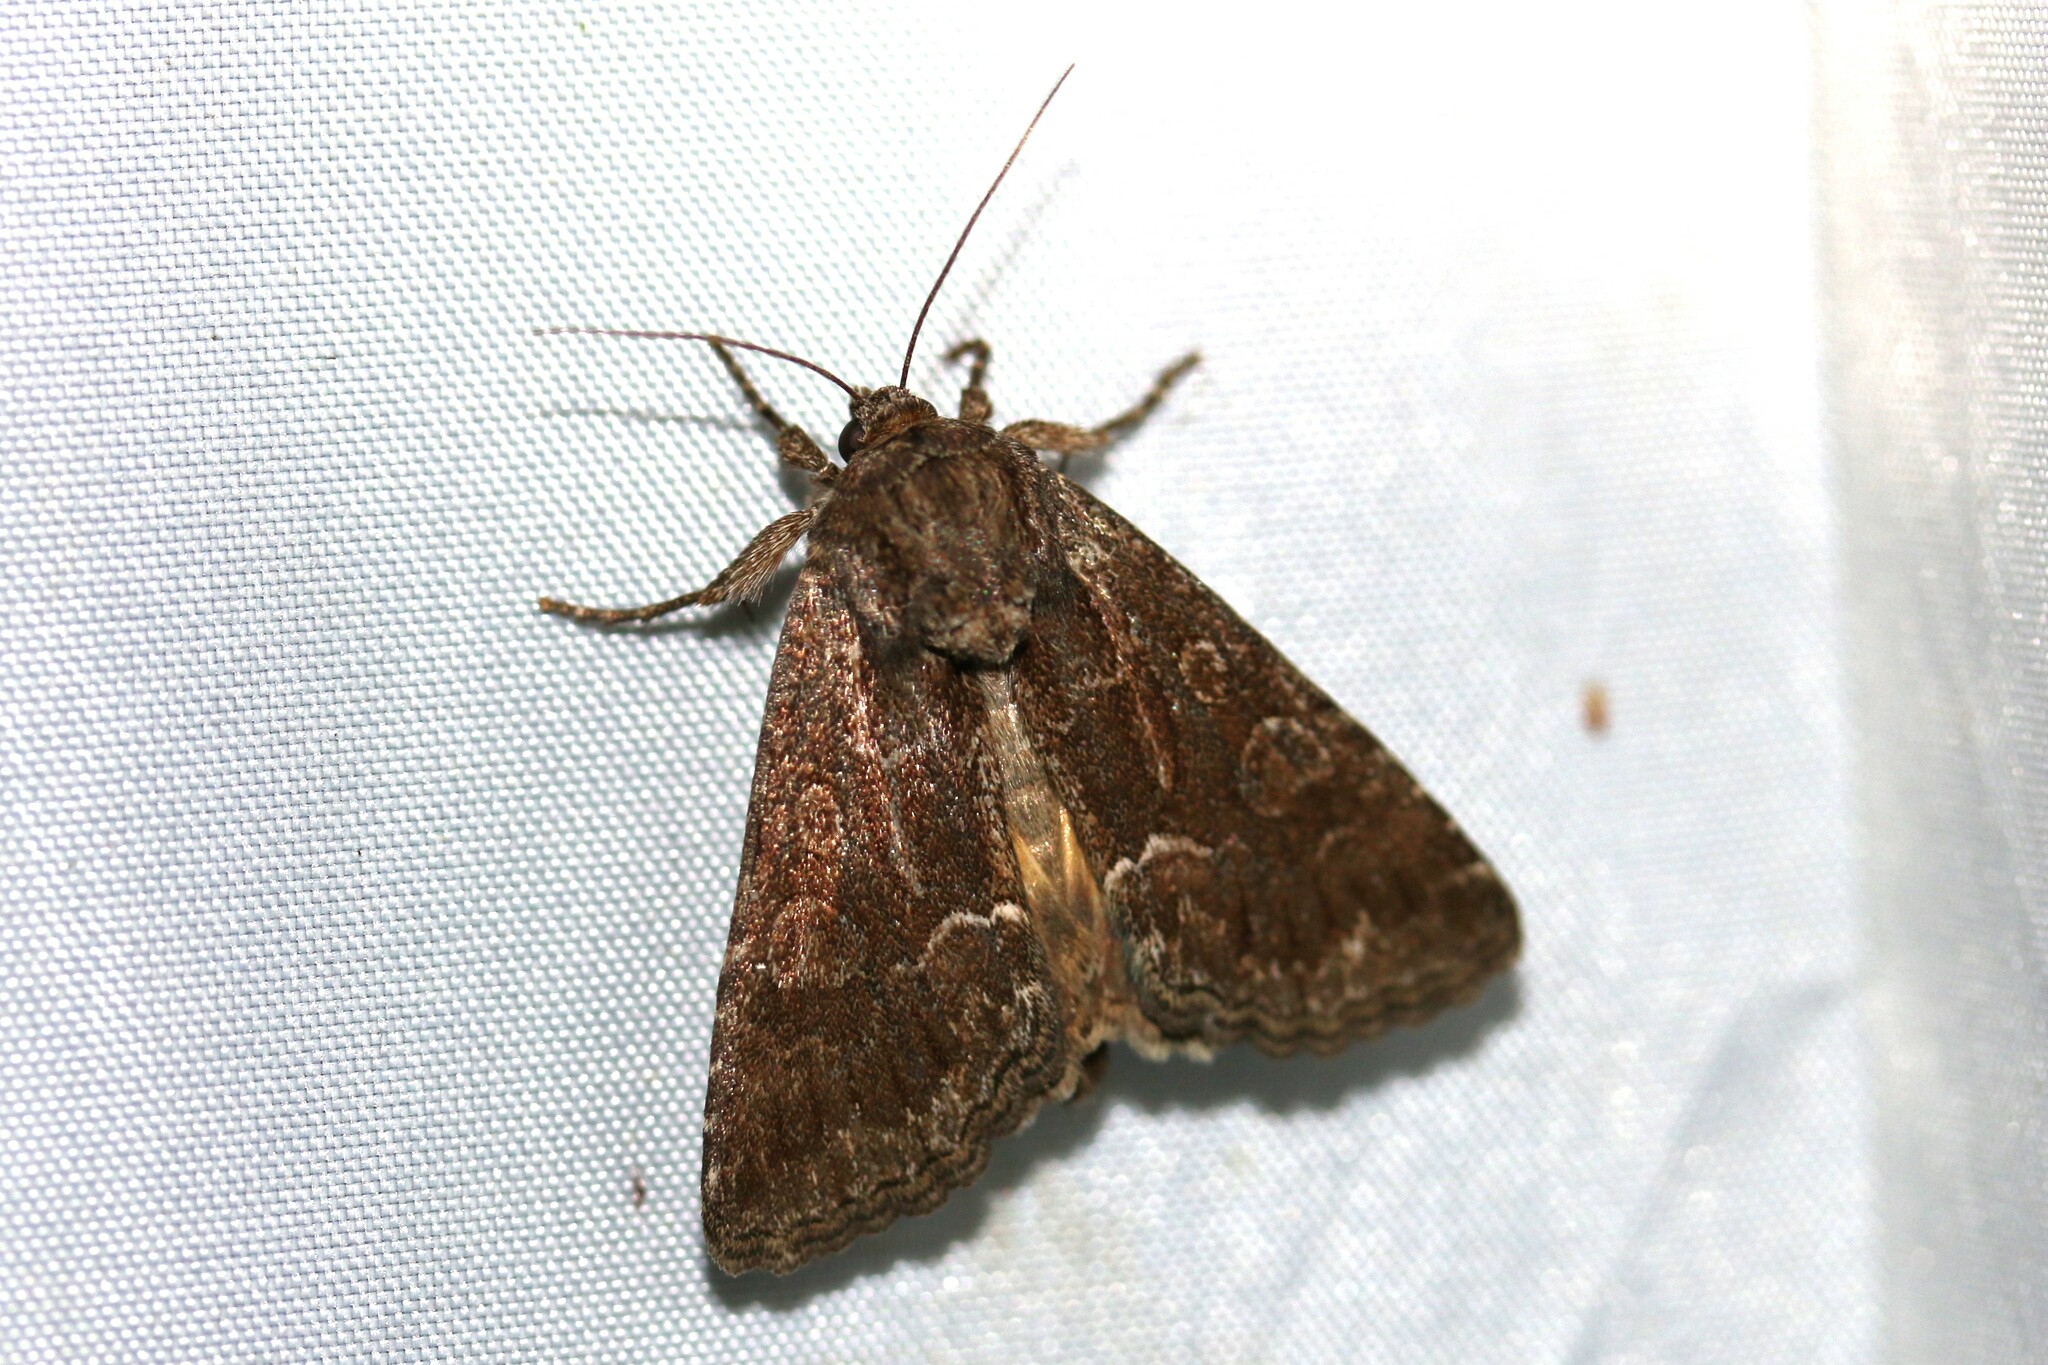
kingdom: Animalia
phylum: Arthropoda
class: Insecta
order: Lepidoptera
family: Noctuidae
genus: Thalpophila
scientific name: Thalpophila matura
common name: Straw underwing
